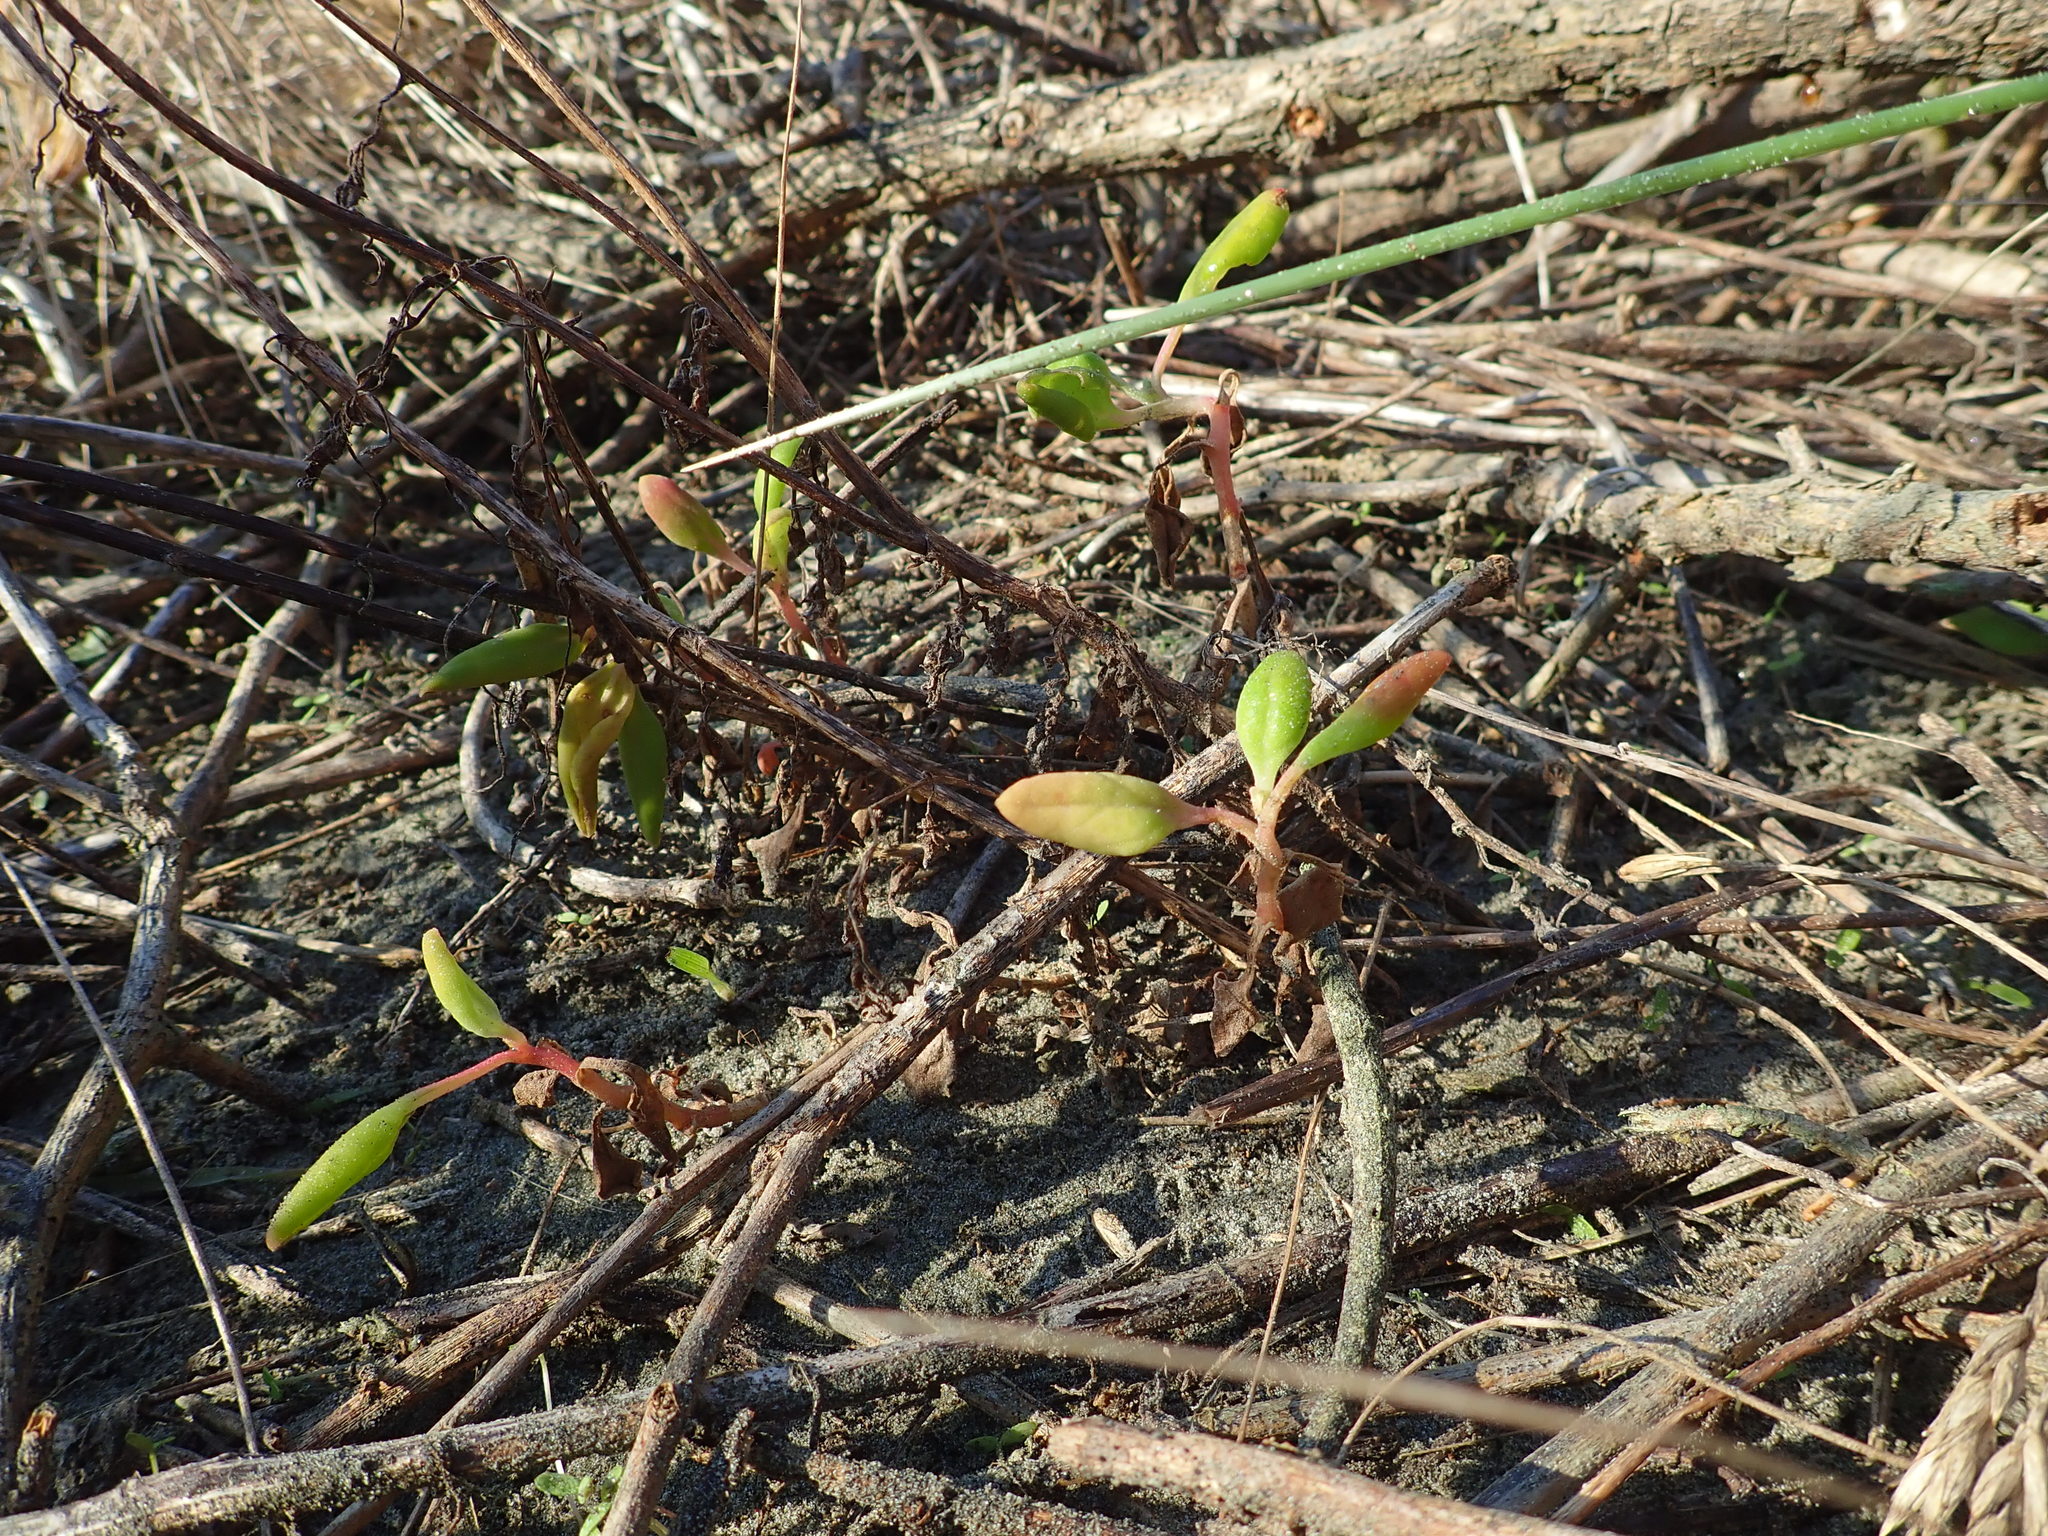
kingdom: Plantae
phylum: Tracheophyta
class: Magnoliopsida
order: Caryophyllales
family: Aizoaceae
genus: Tetragonia
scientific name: Tetragonia implexicoma
